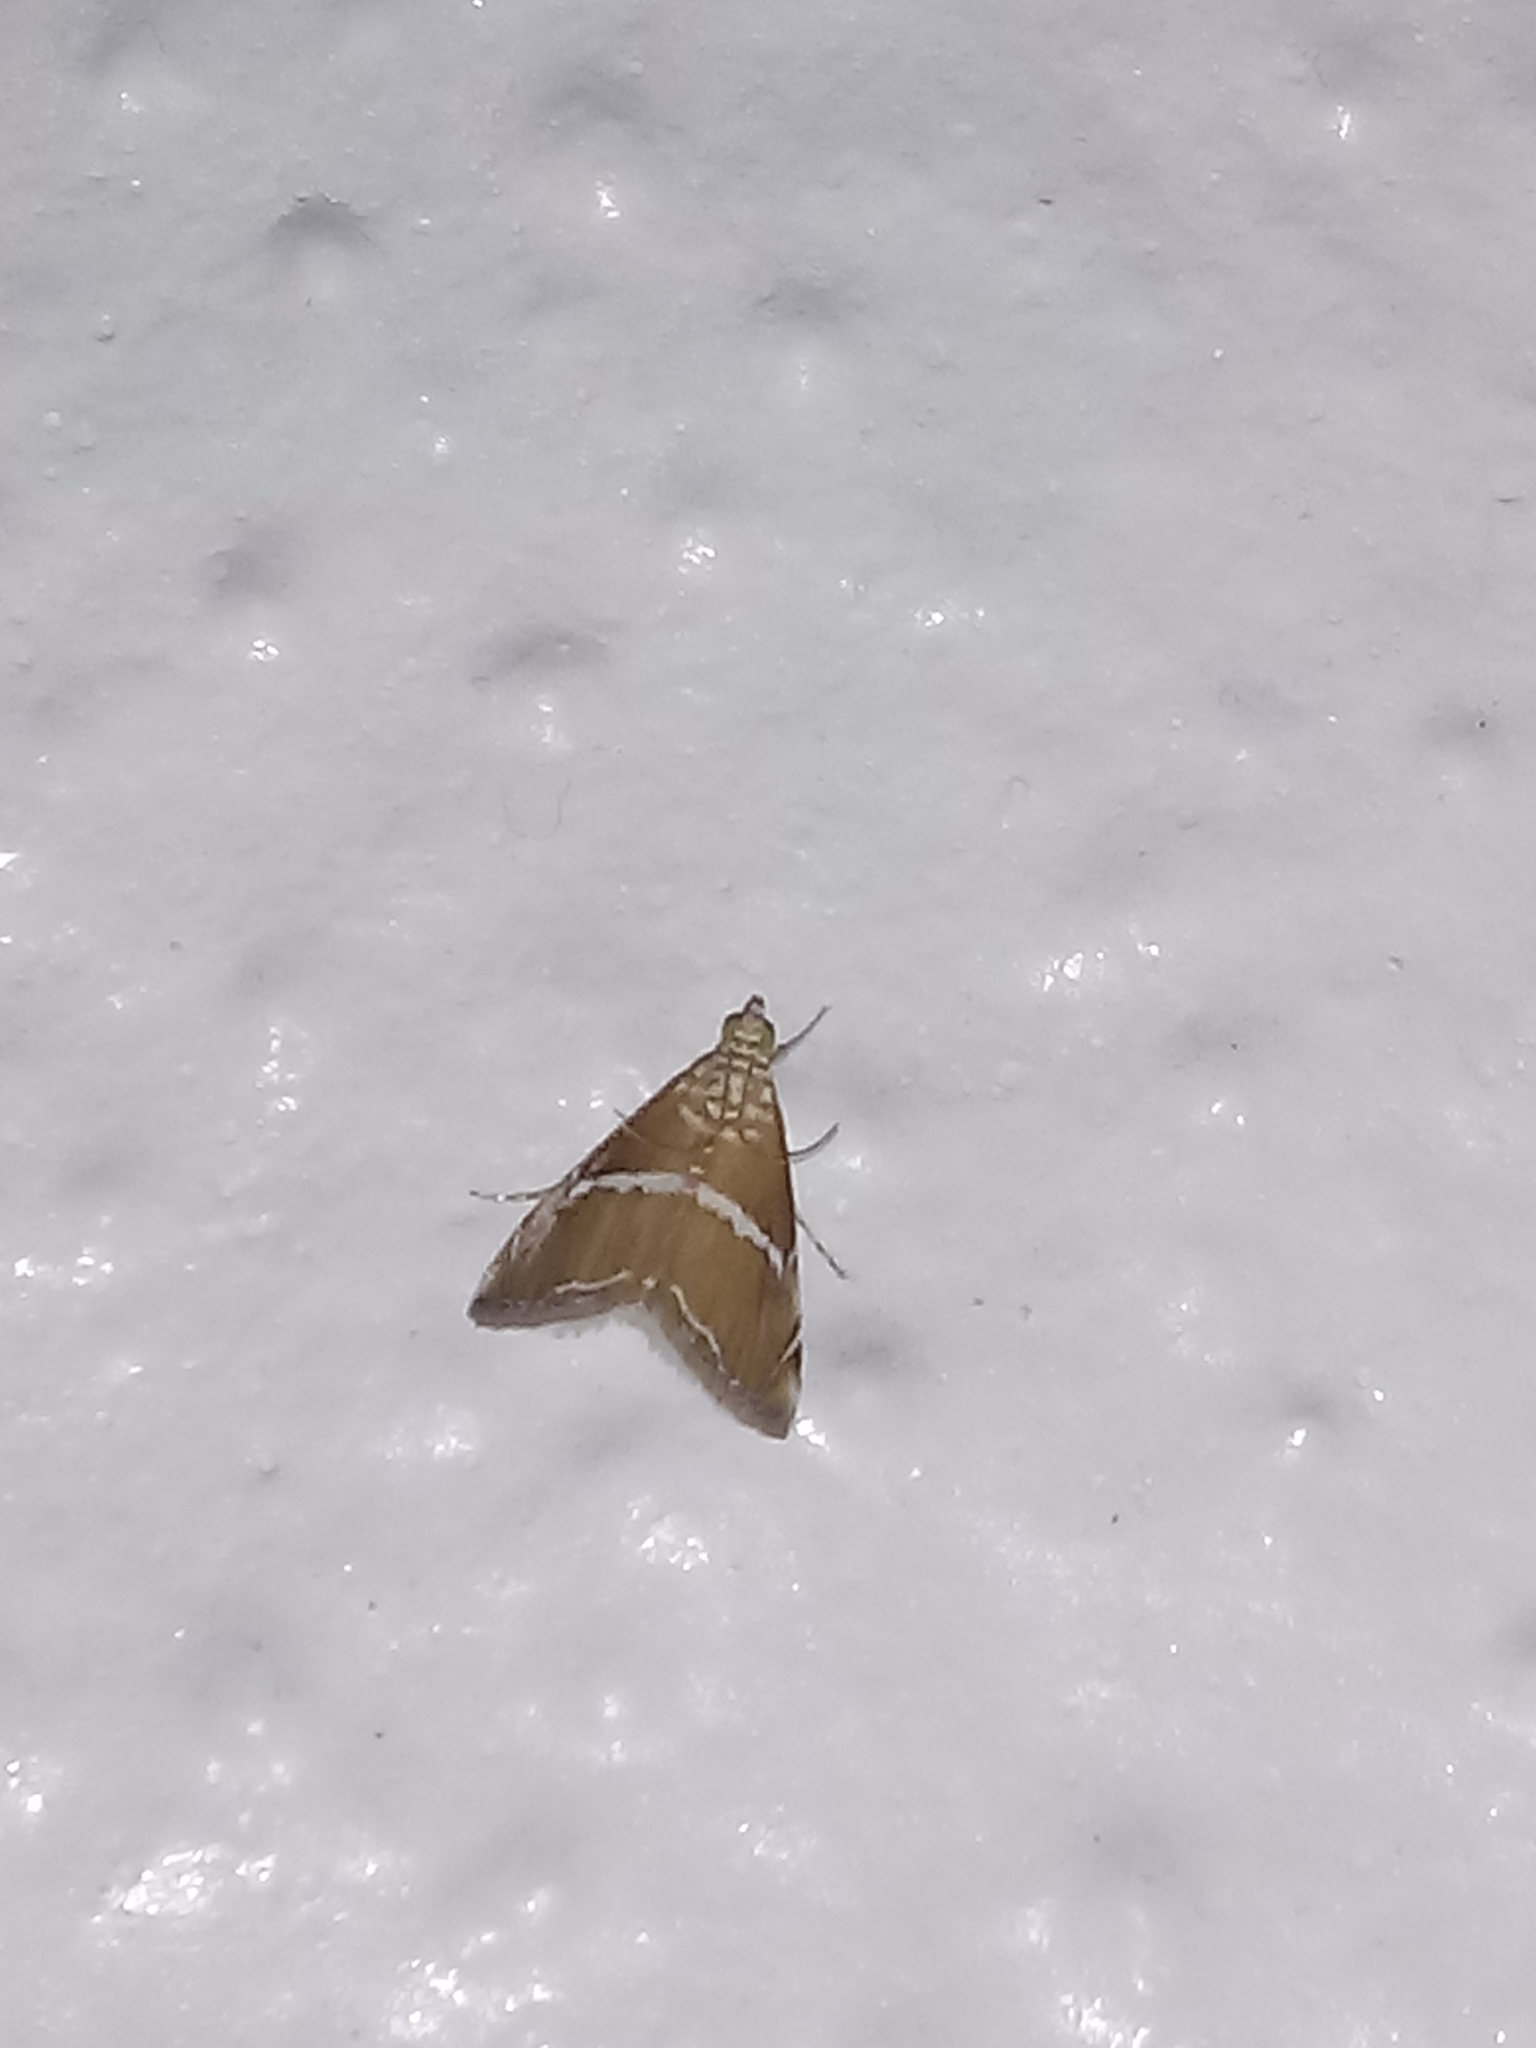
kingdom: Animalia
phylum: Arthropoda
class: Insecta
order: Lepidoptera
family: Crambidae
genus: Abegesta
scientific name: Abegesta remellalis
